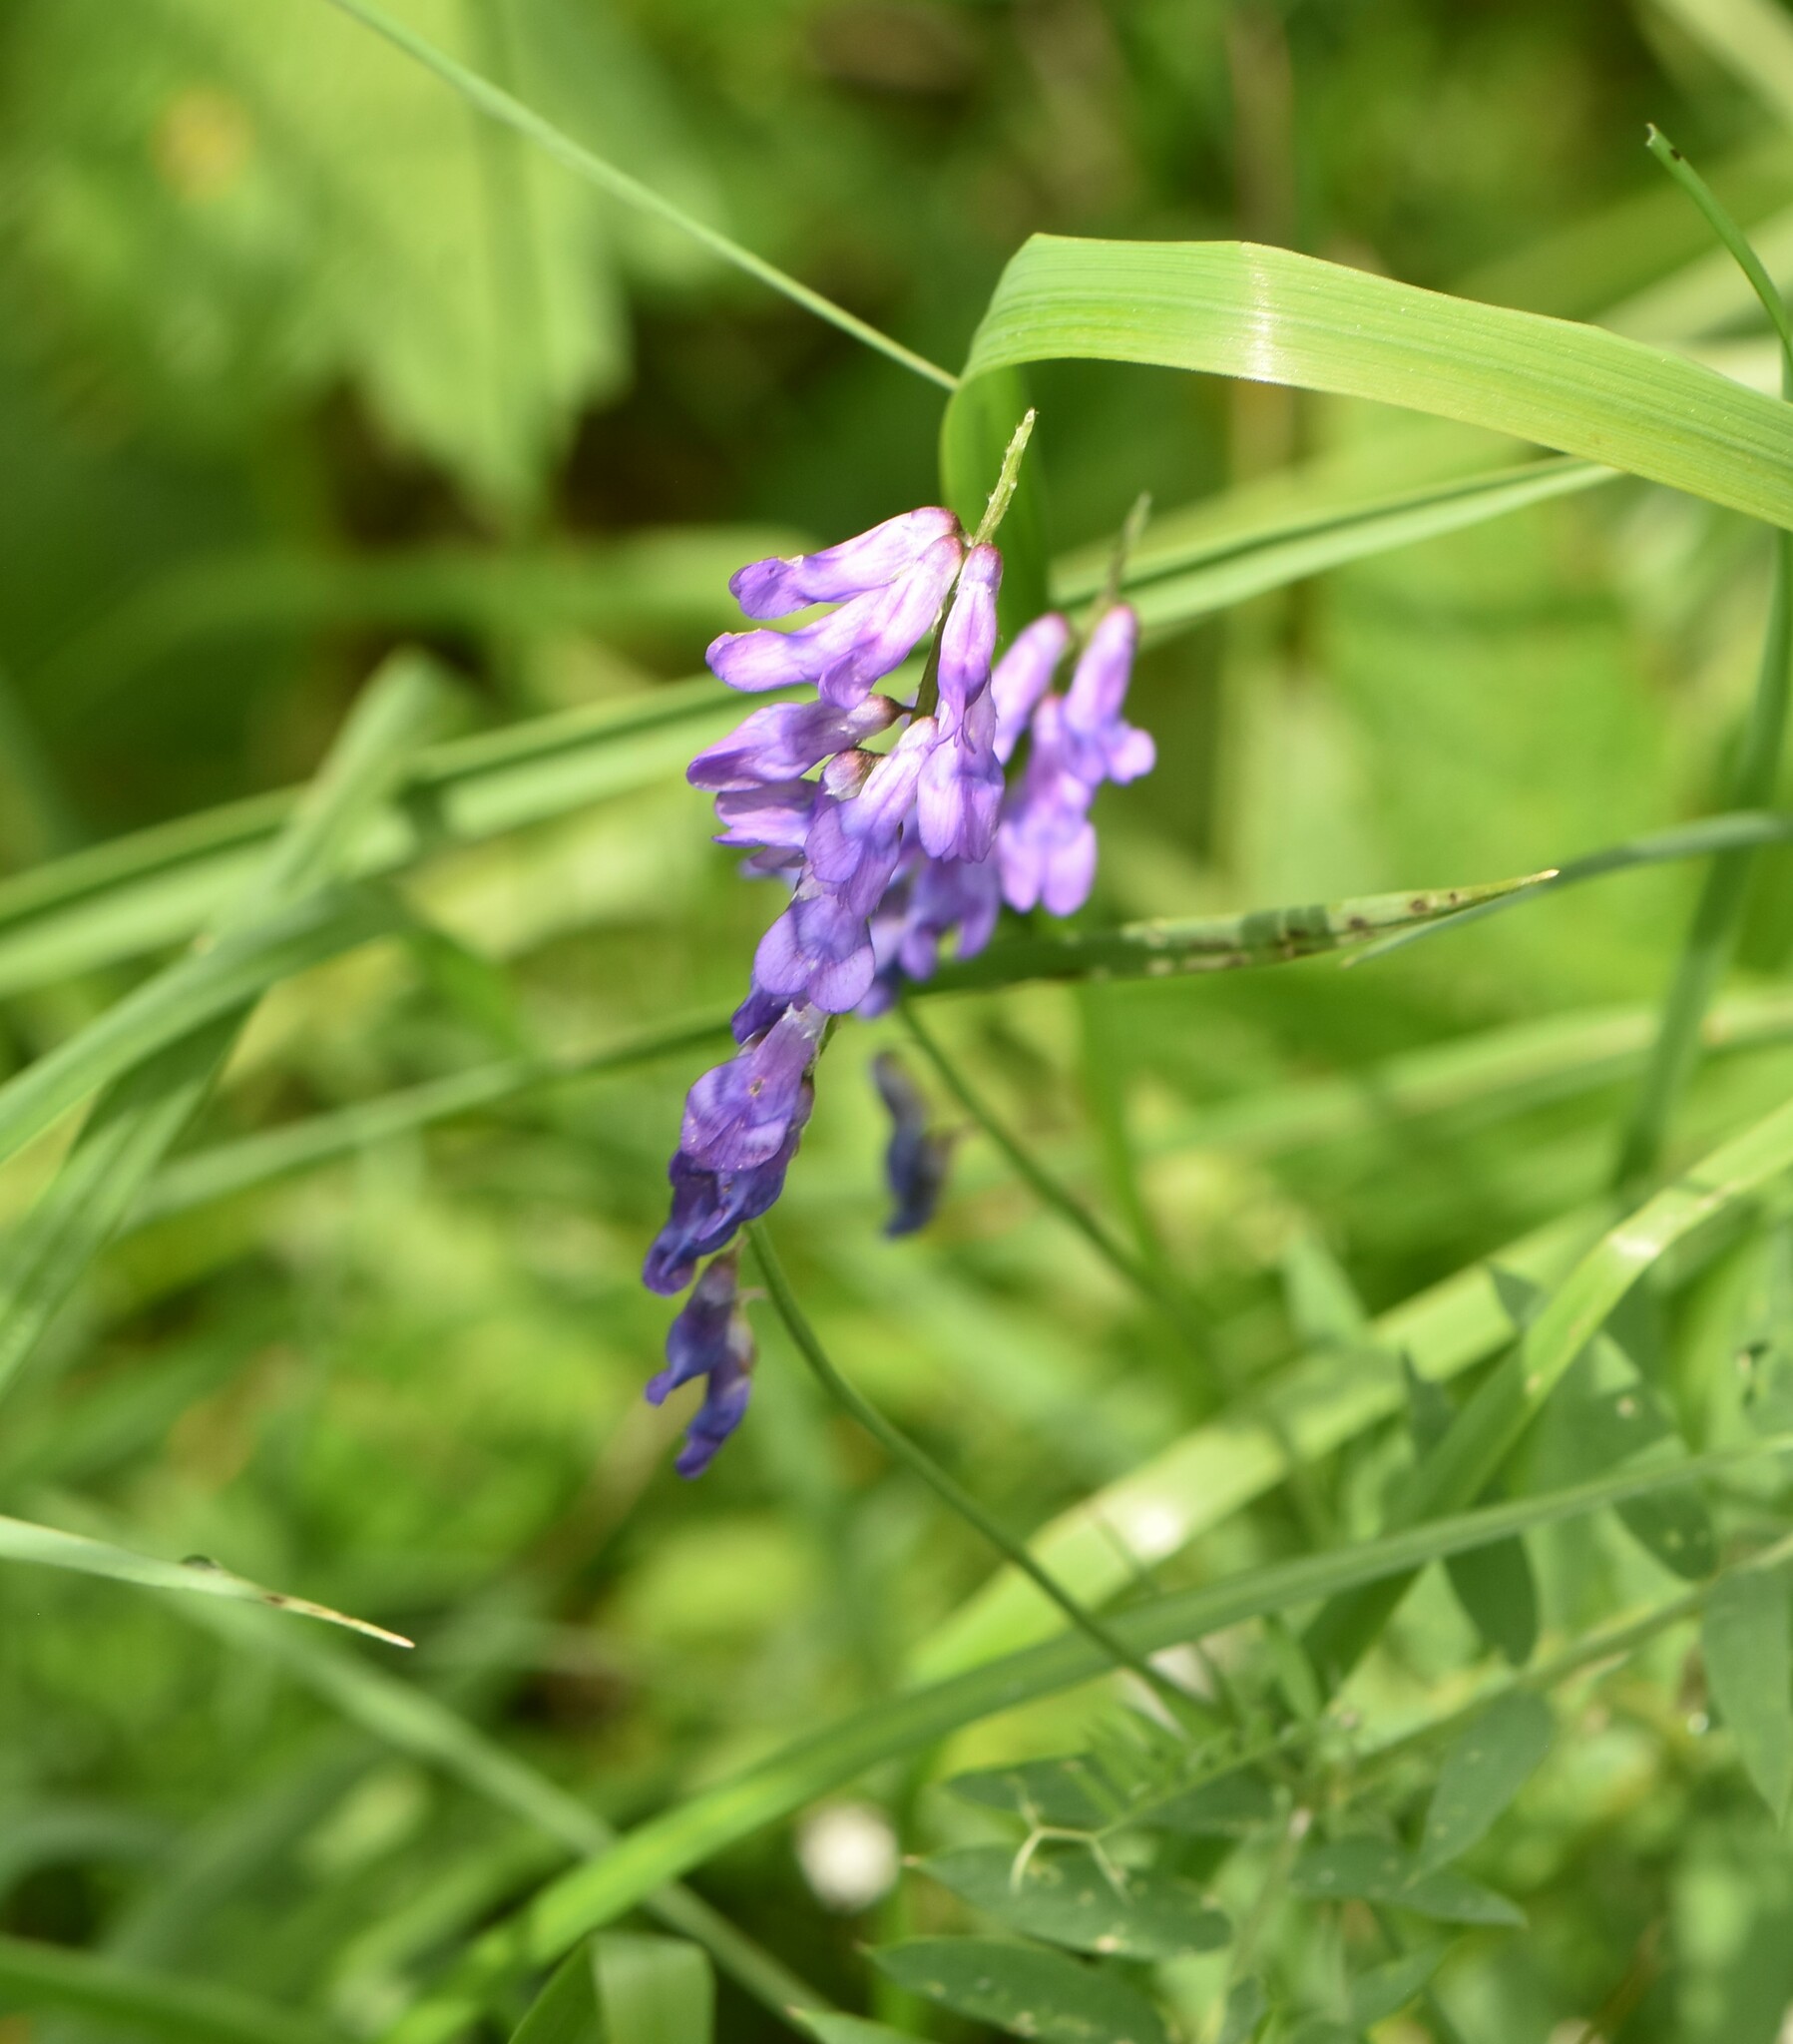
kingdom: Plantae
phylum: Tracheophyta
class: Magnoliopsida
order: Fabales
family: Fabaceae
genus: Vicia
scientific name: Vicia cracca
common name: Bird vetch
